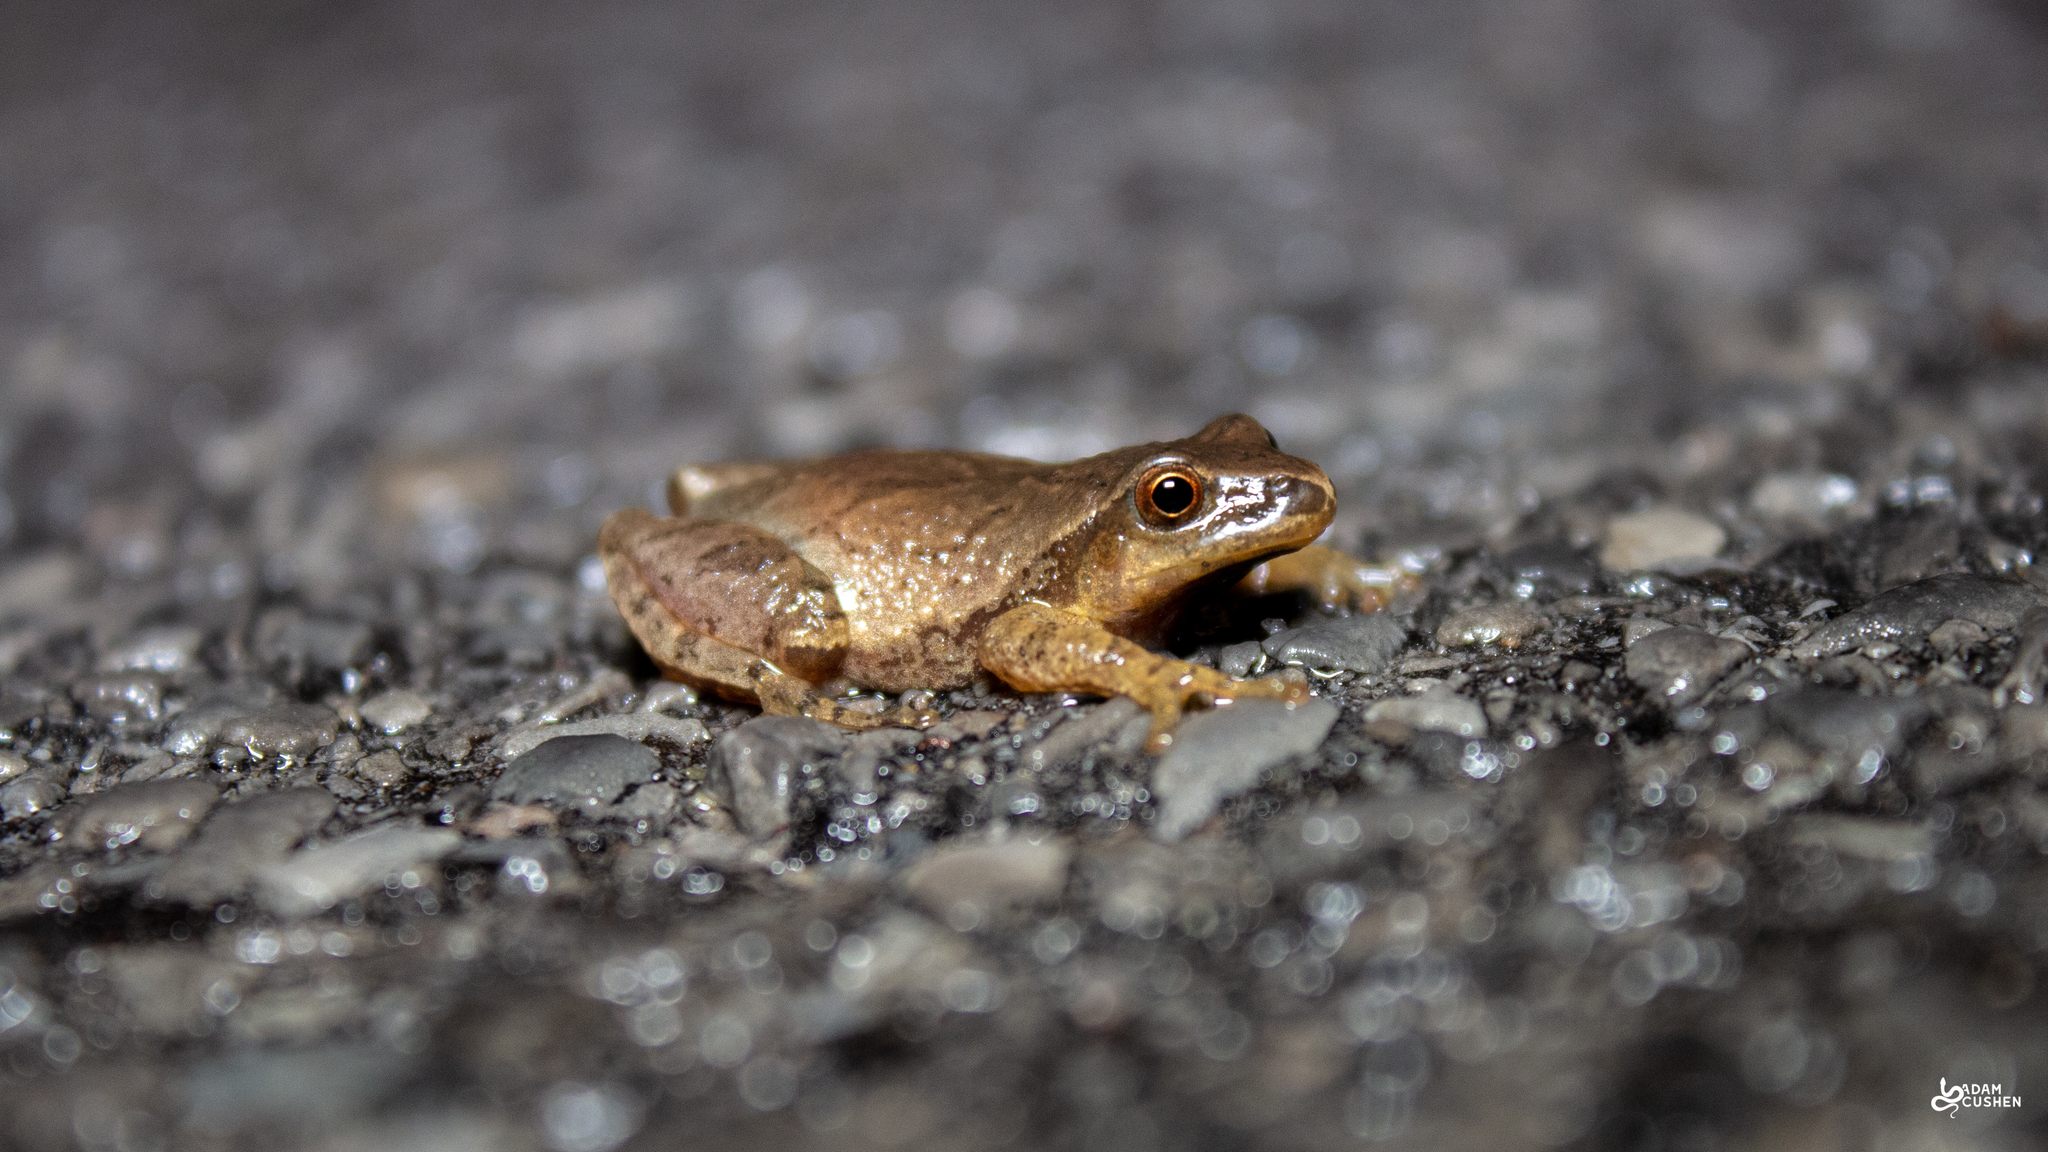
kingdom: Animalia
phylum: Chordata
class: Amphibia
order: Anura
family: Hylidae
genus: Pseudacris
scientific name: Pseudacris crucifer
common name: Spring peeper
